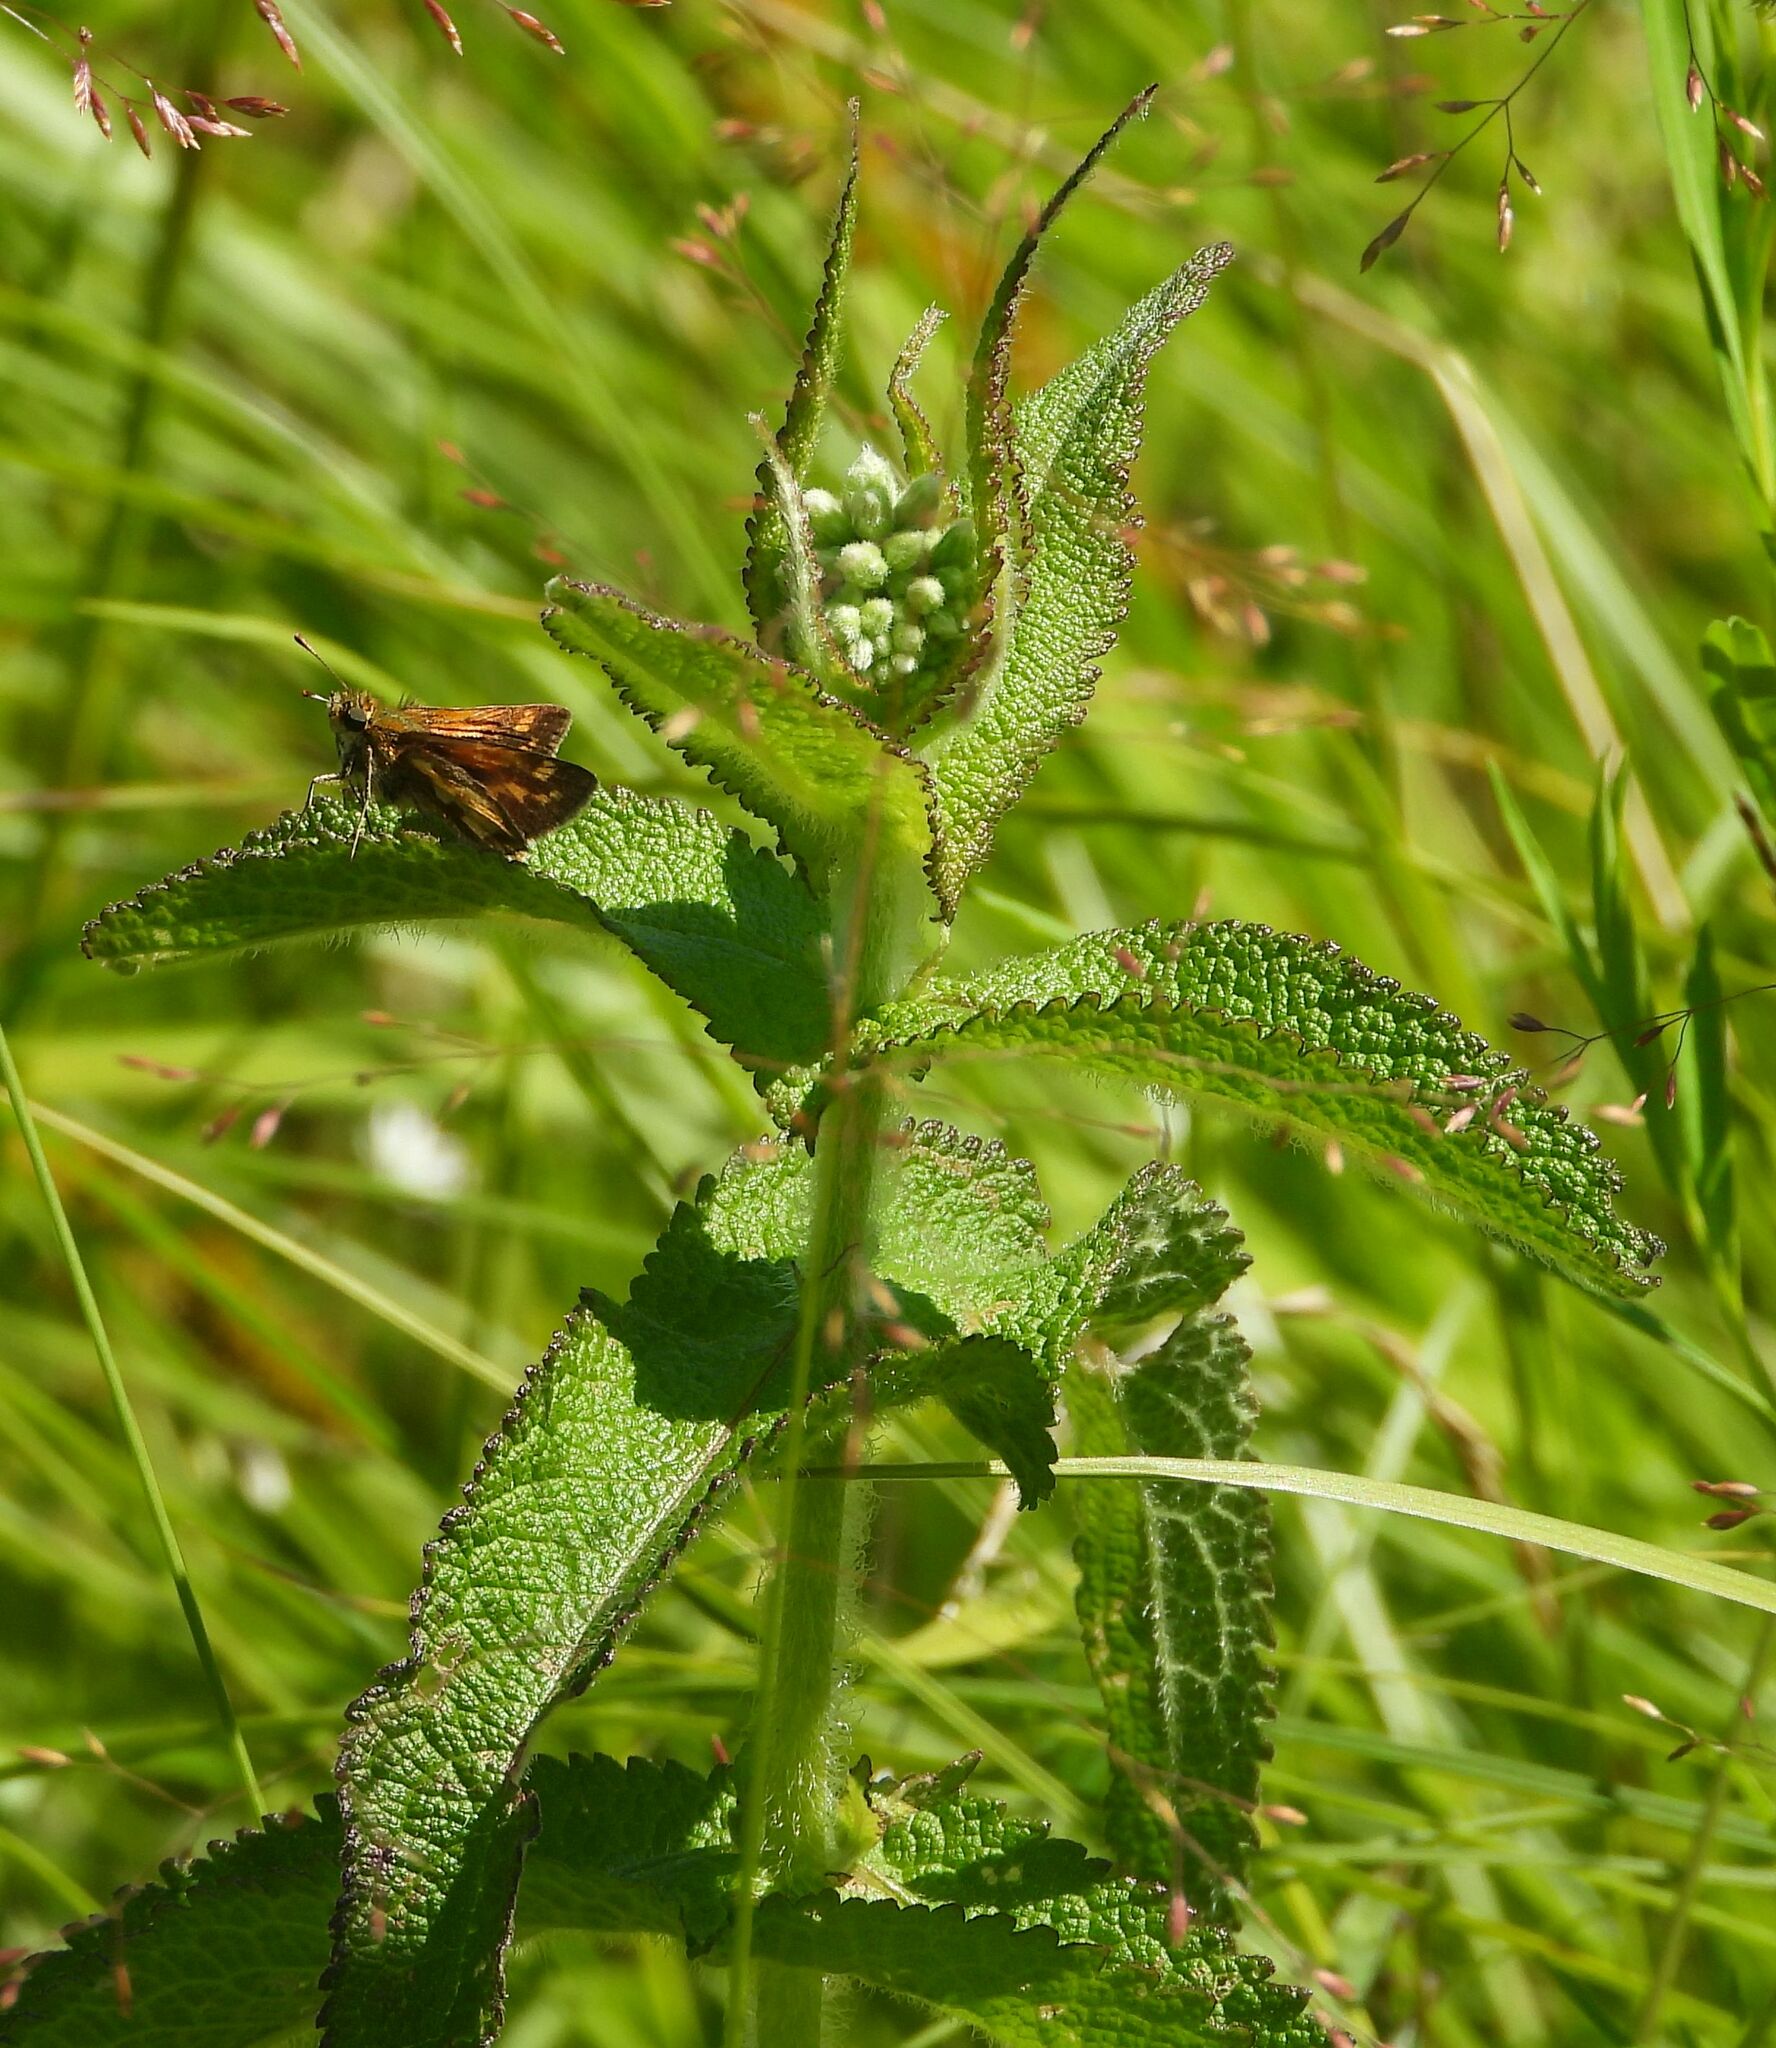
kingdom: Plantae
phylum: Tracheophyta
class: Magnoliopsida
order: Asterales
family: Asteraceae
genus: Eupatorium
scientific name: Eupatorium perfoliatum
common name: Boneset
